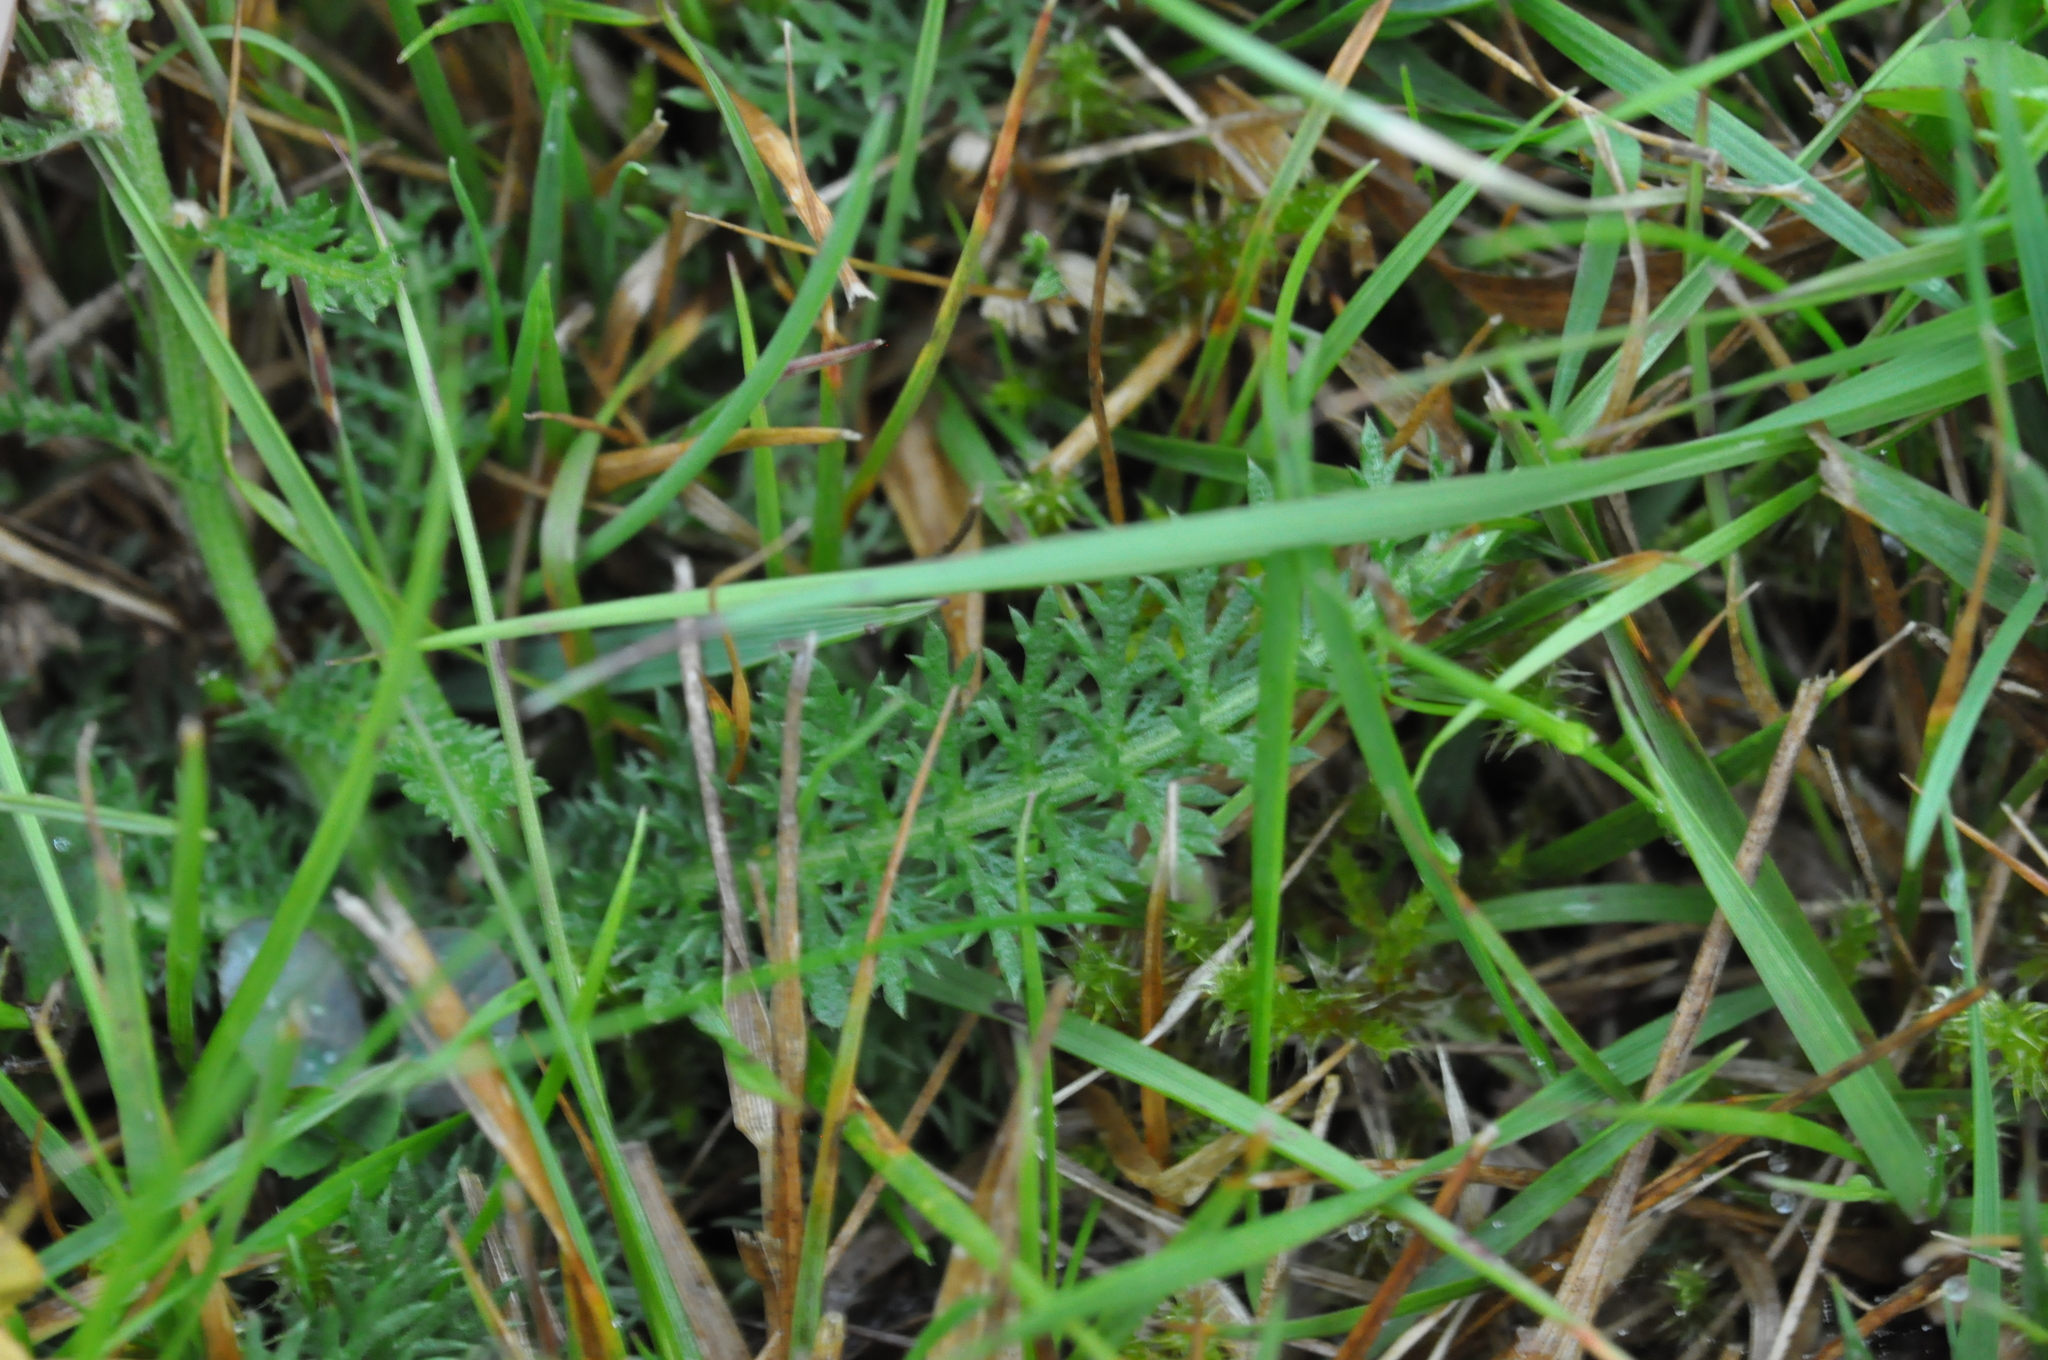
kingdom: Plantae
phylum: Tracheophyta
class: Magnoliopsida
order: Asterales
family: Asteraceae
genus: Achillea
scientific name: Achillea millefolium
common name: Yarrow
